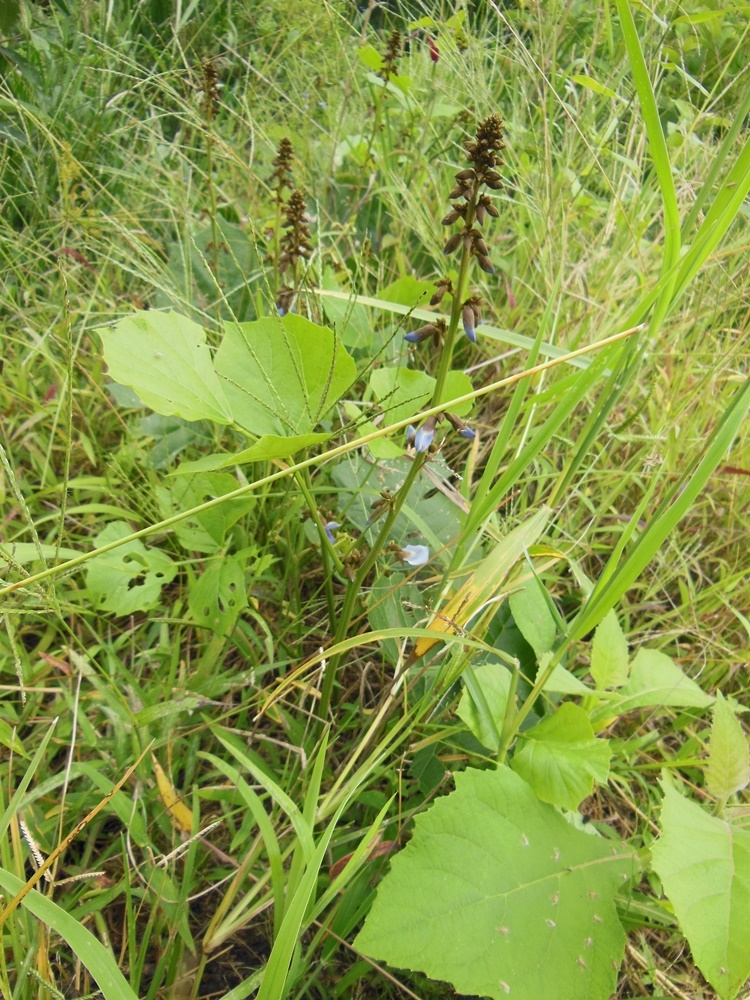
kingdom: Plantae
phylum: Tracheophyta
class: Magnoliopsida
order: Fabales
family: Fabaceae
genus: Pachyrhizus
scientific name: Pachyrhizus erosus
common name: Yam bean
